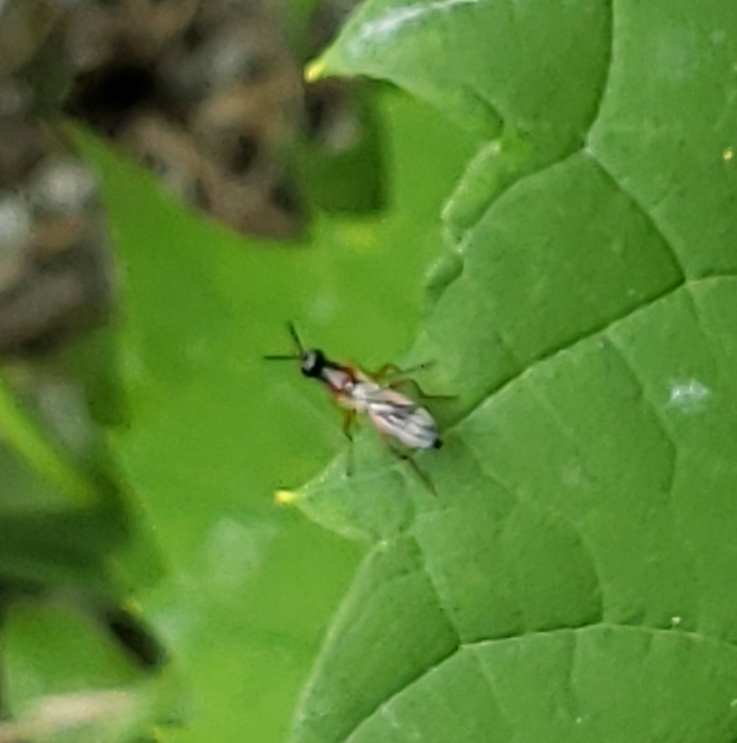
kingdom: Animalia
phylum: Arthropoda
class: Insecta
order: Diptera
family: Psilidae
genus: Loxocera
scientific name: Loxocera cylindrica
